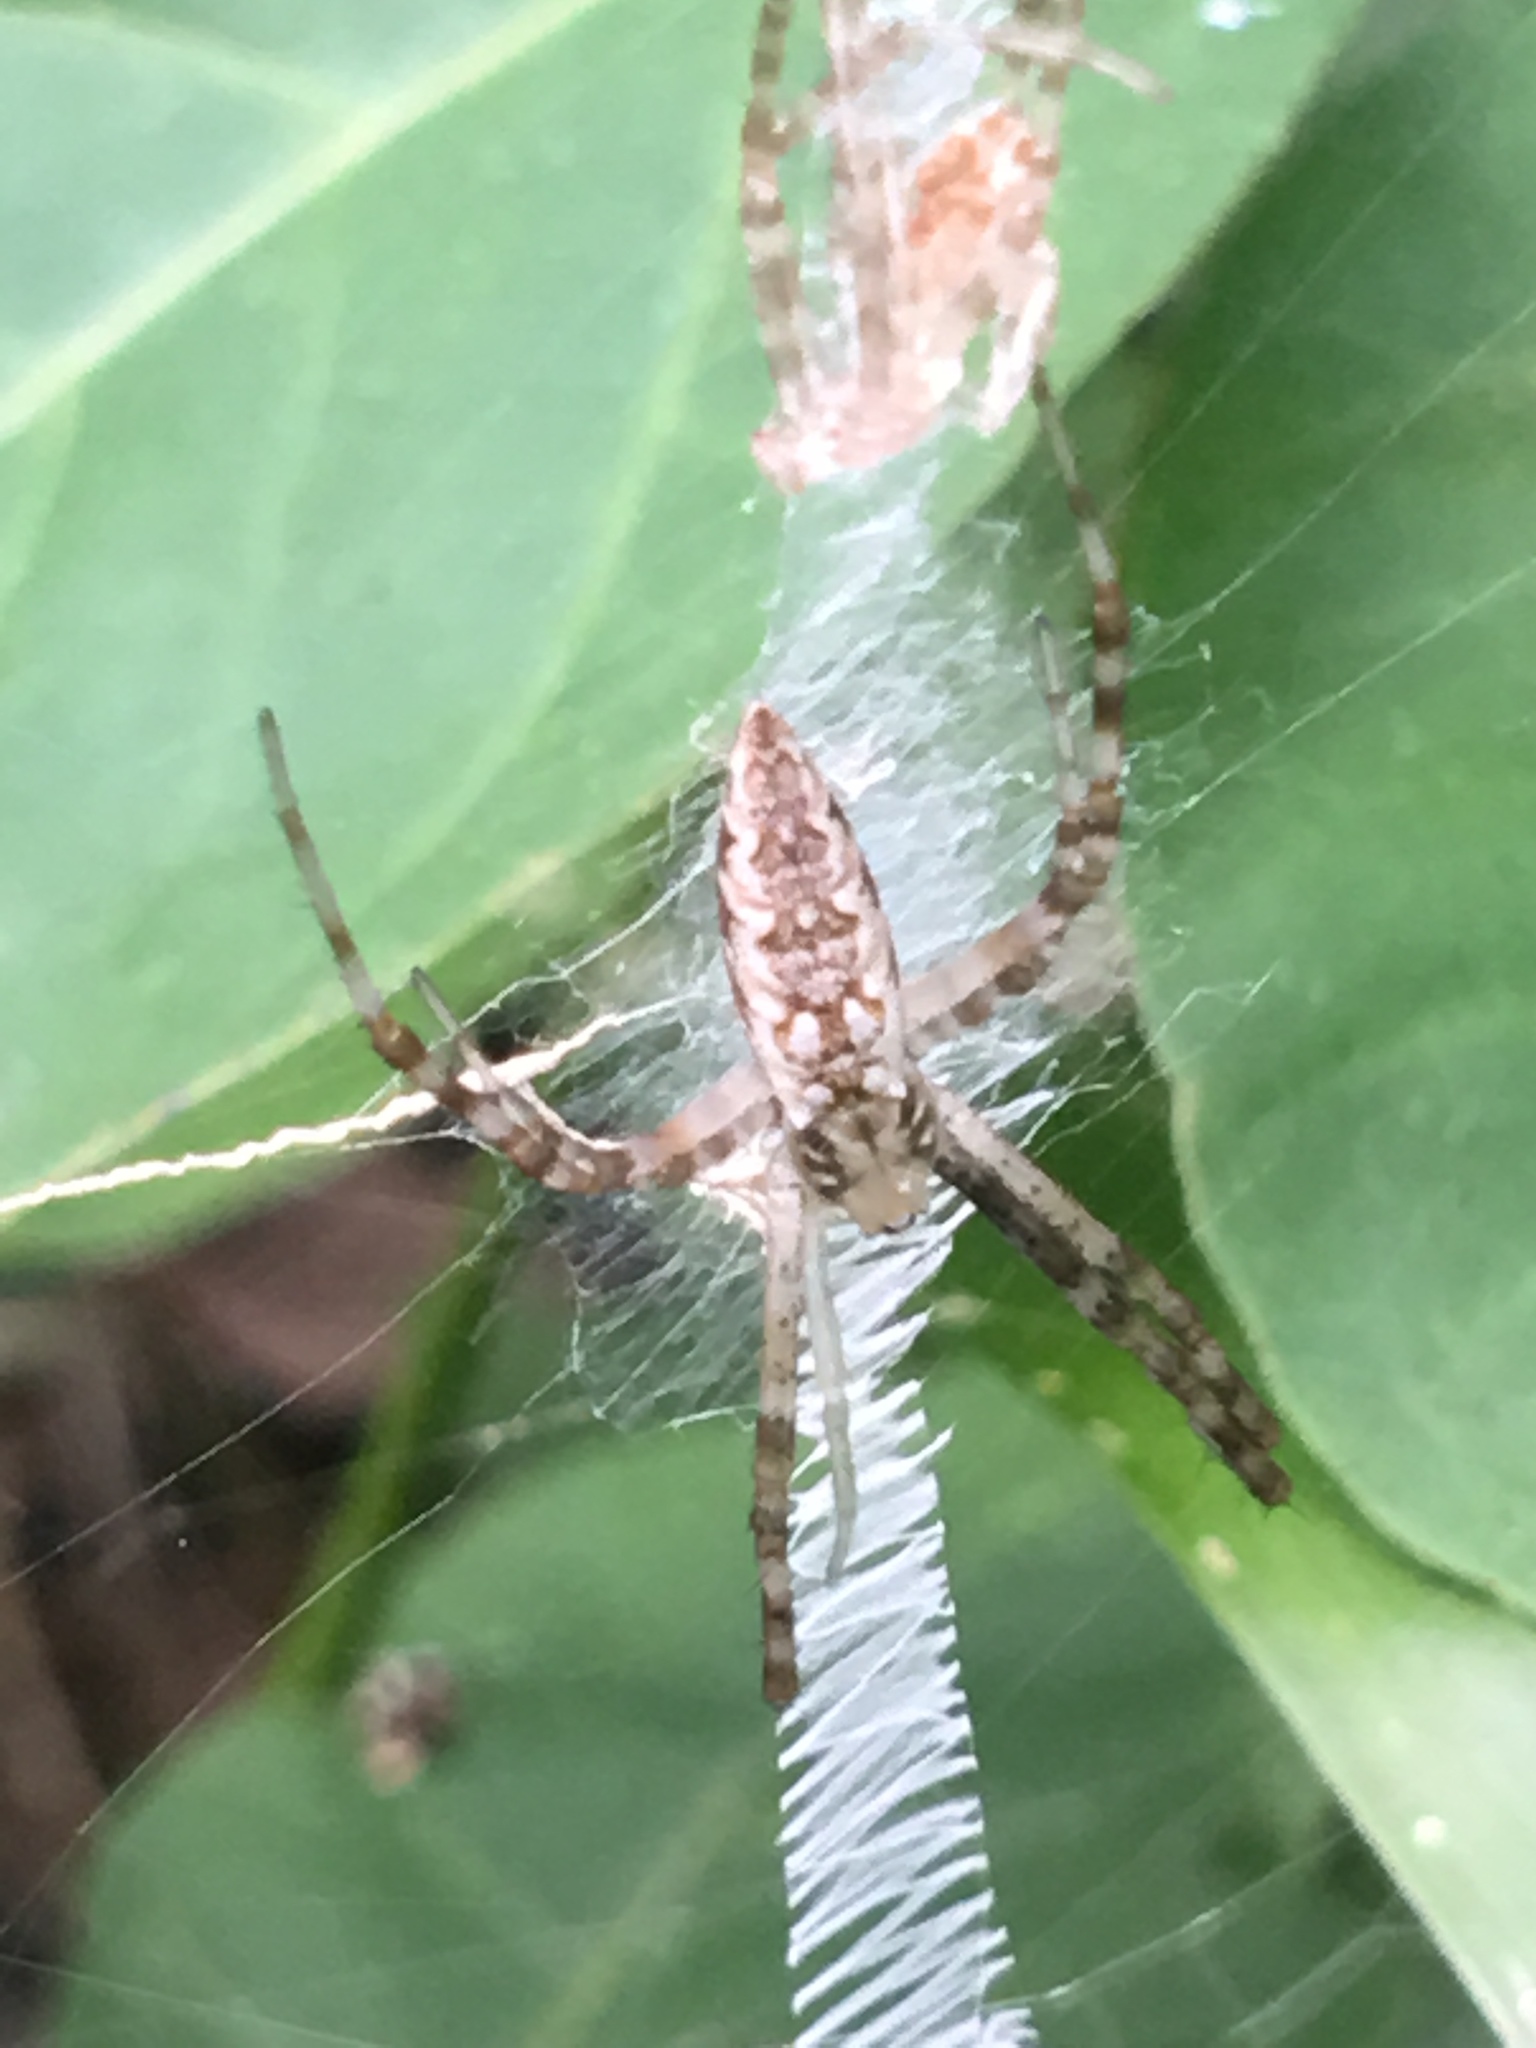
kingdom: Animalia
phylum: Arthropoda
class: Arachnida
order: Araneae
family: Araneidae
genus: Argiope
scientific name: Argiope aurantia
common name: Orb weavers
